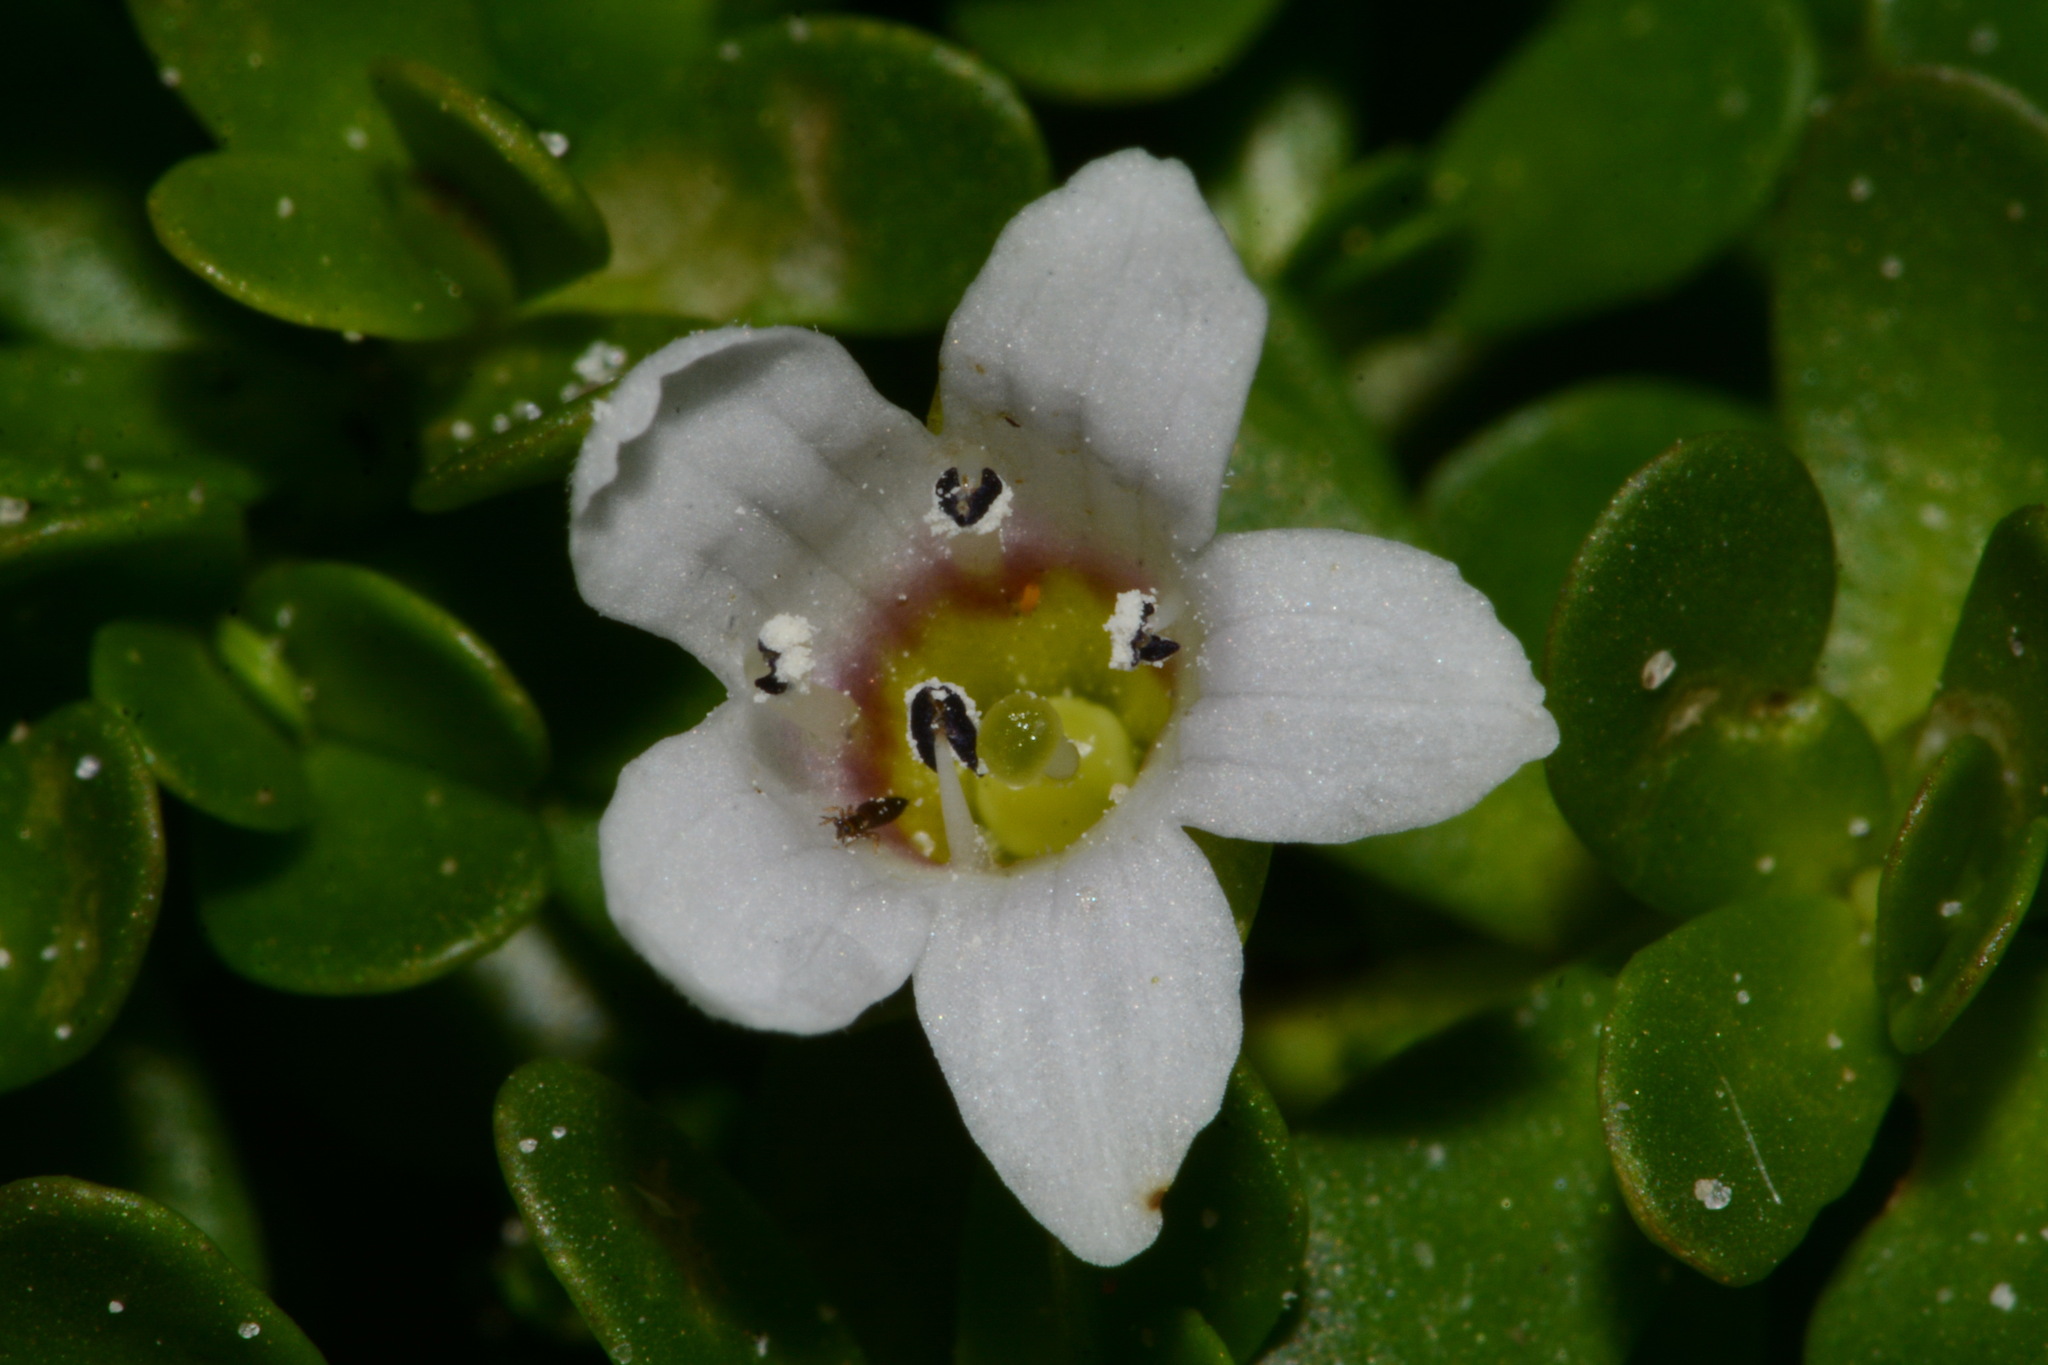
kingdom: Plantae
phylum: Tracheophyta
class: Magnoliopsida
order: Lamiales
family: Plantaginaceae
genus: Bacopa
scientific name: Bacopa monnieri
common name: Indian-pennywort
